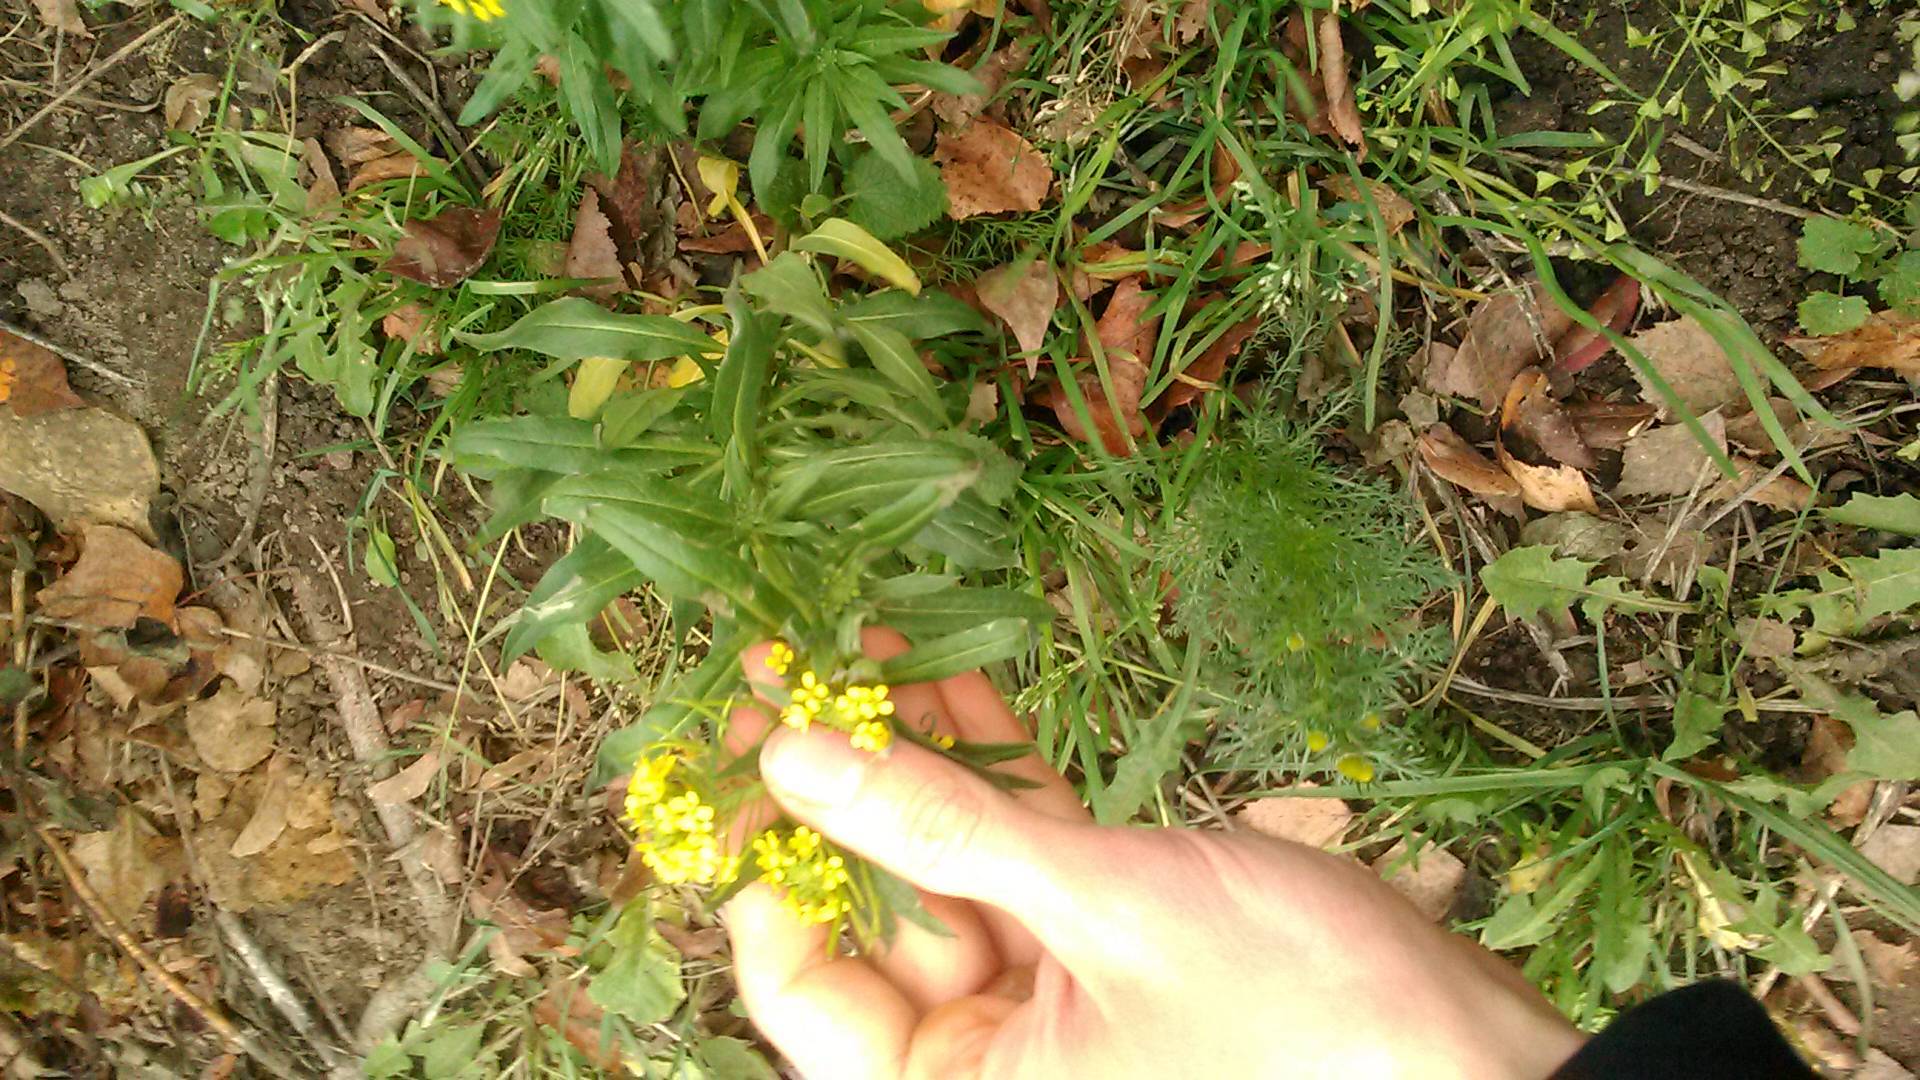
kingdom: Plantae
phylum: Tracheophyta
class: Magnoliopsida
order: Brassicales
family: Brassicaceae
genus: Erysimum
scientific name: Erysimum cheiranthoides
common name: Treacle mustard
